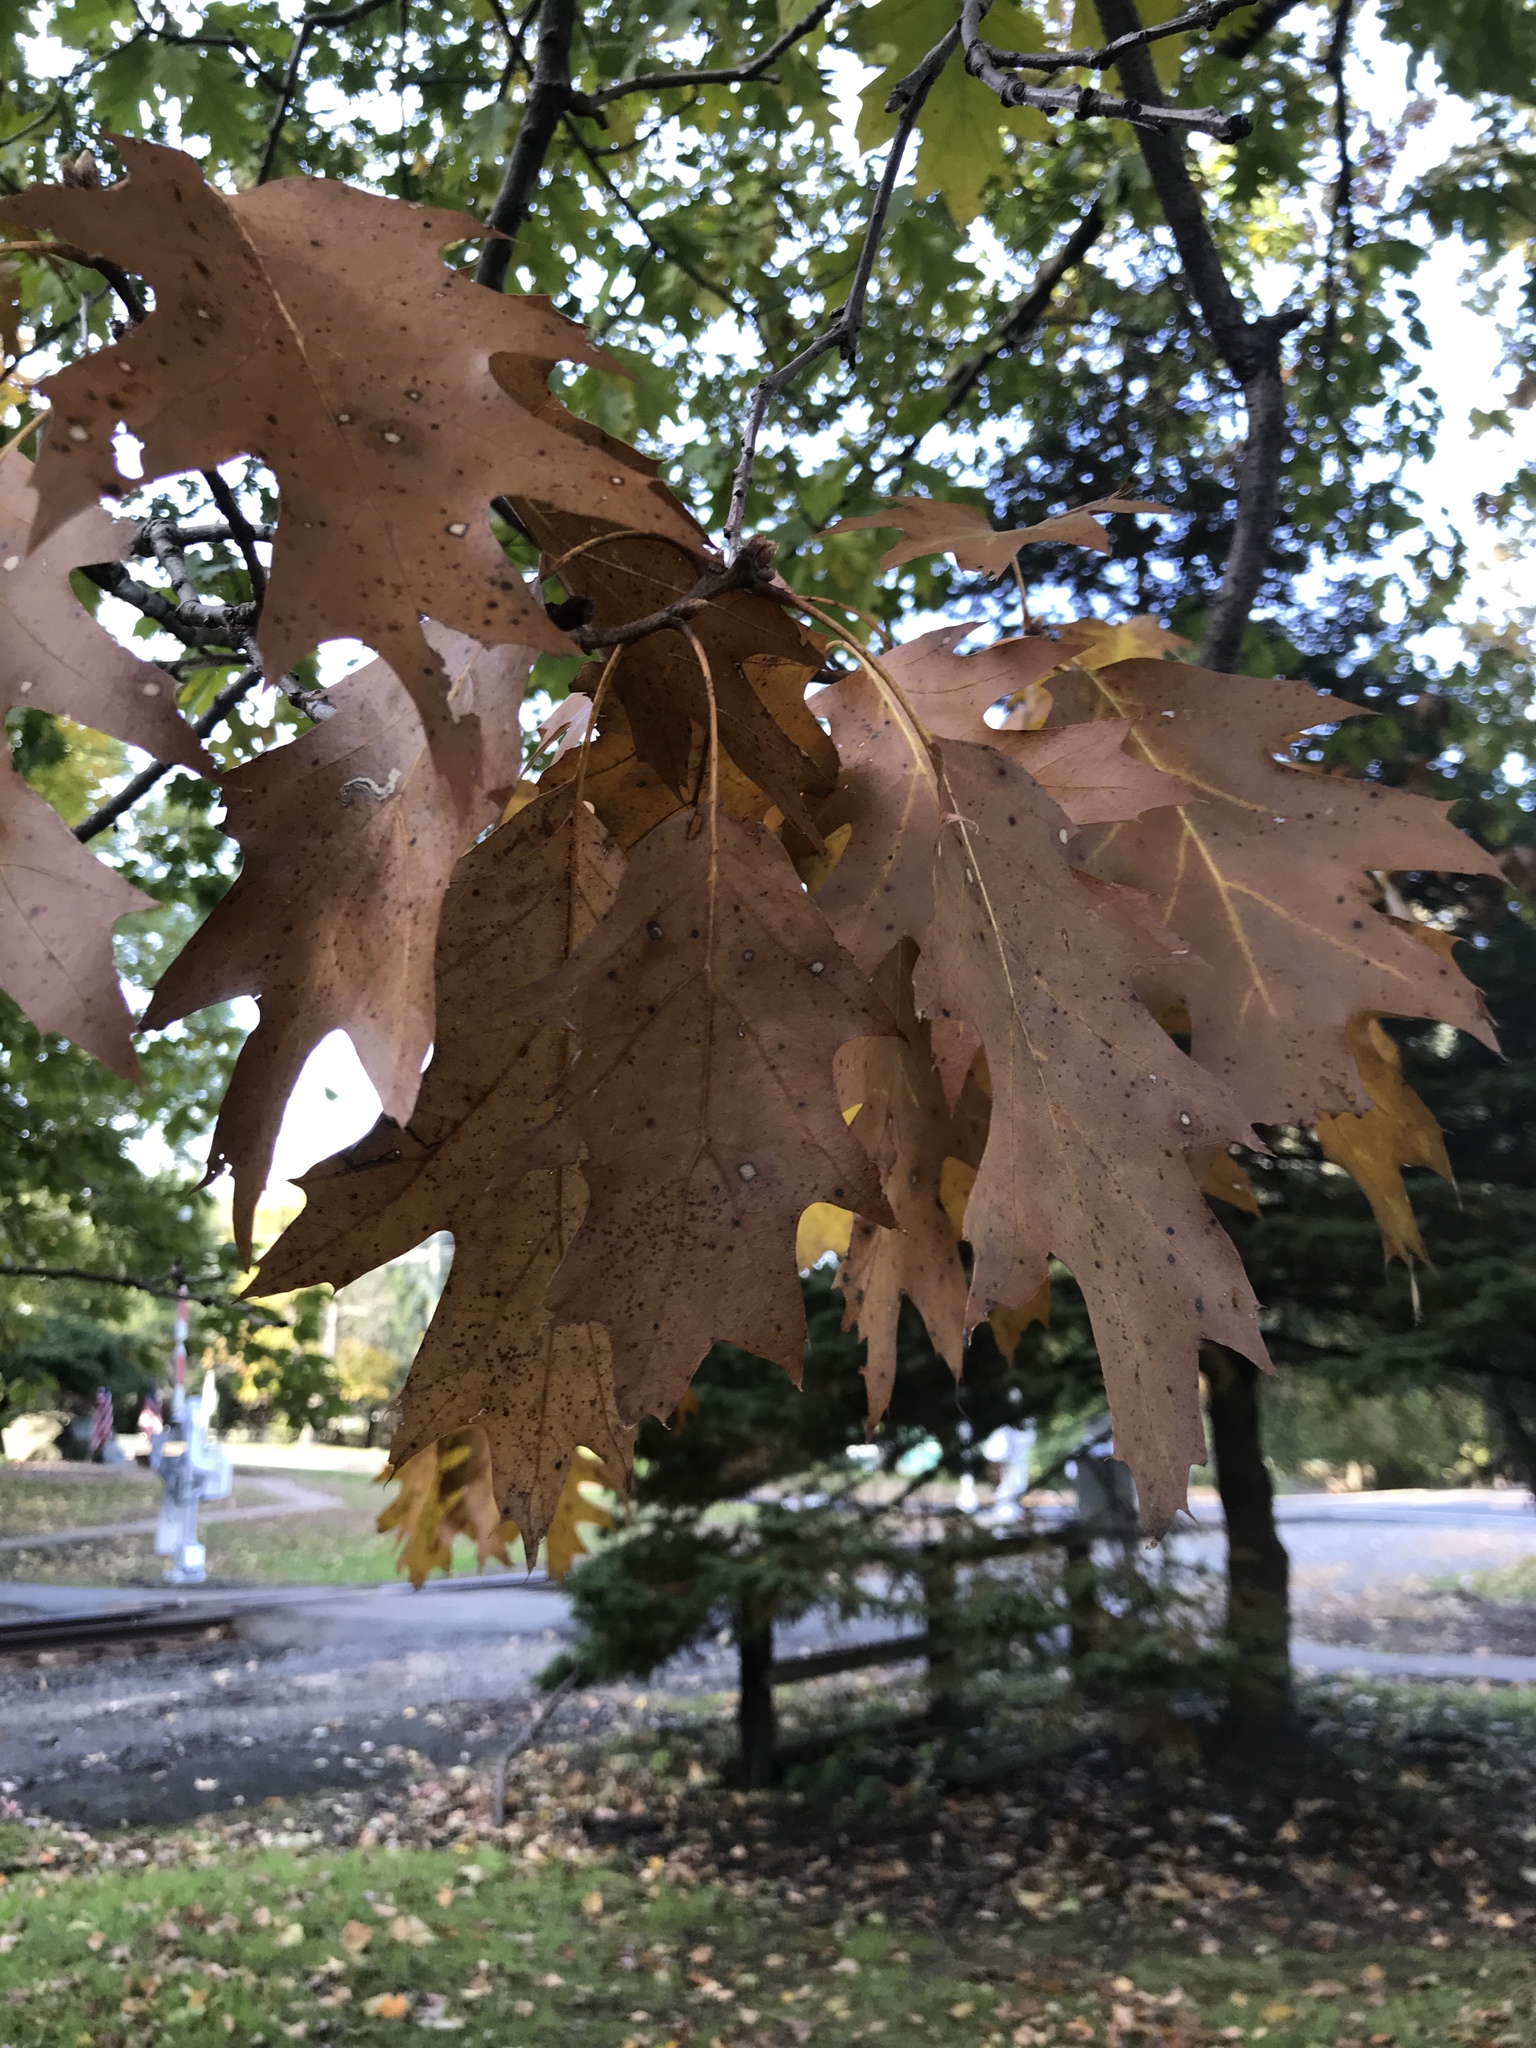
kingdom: Plantae
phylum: Tracheophyta
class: Magnoliopsida
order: Fagales
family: Fagaceae
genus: Quercus
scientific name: Quercus rubra
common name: Red oak
